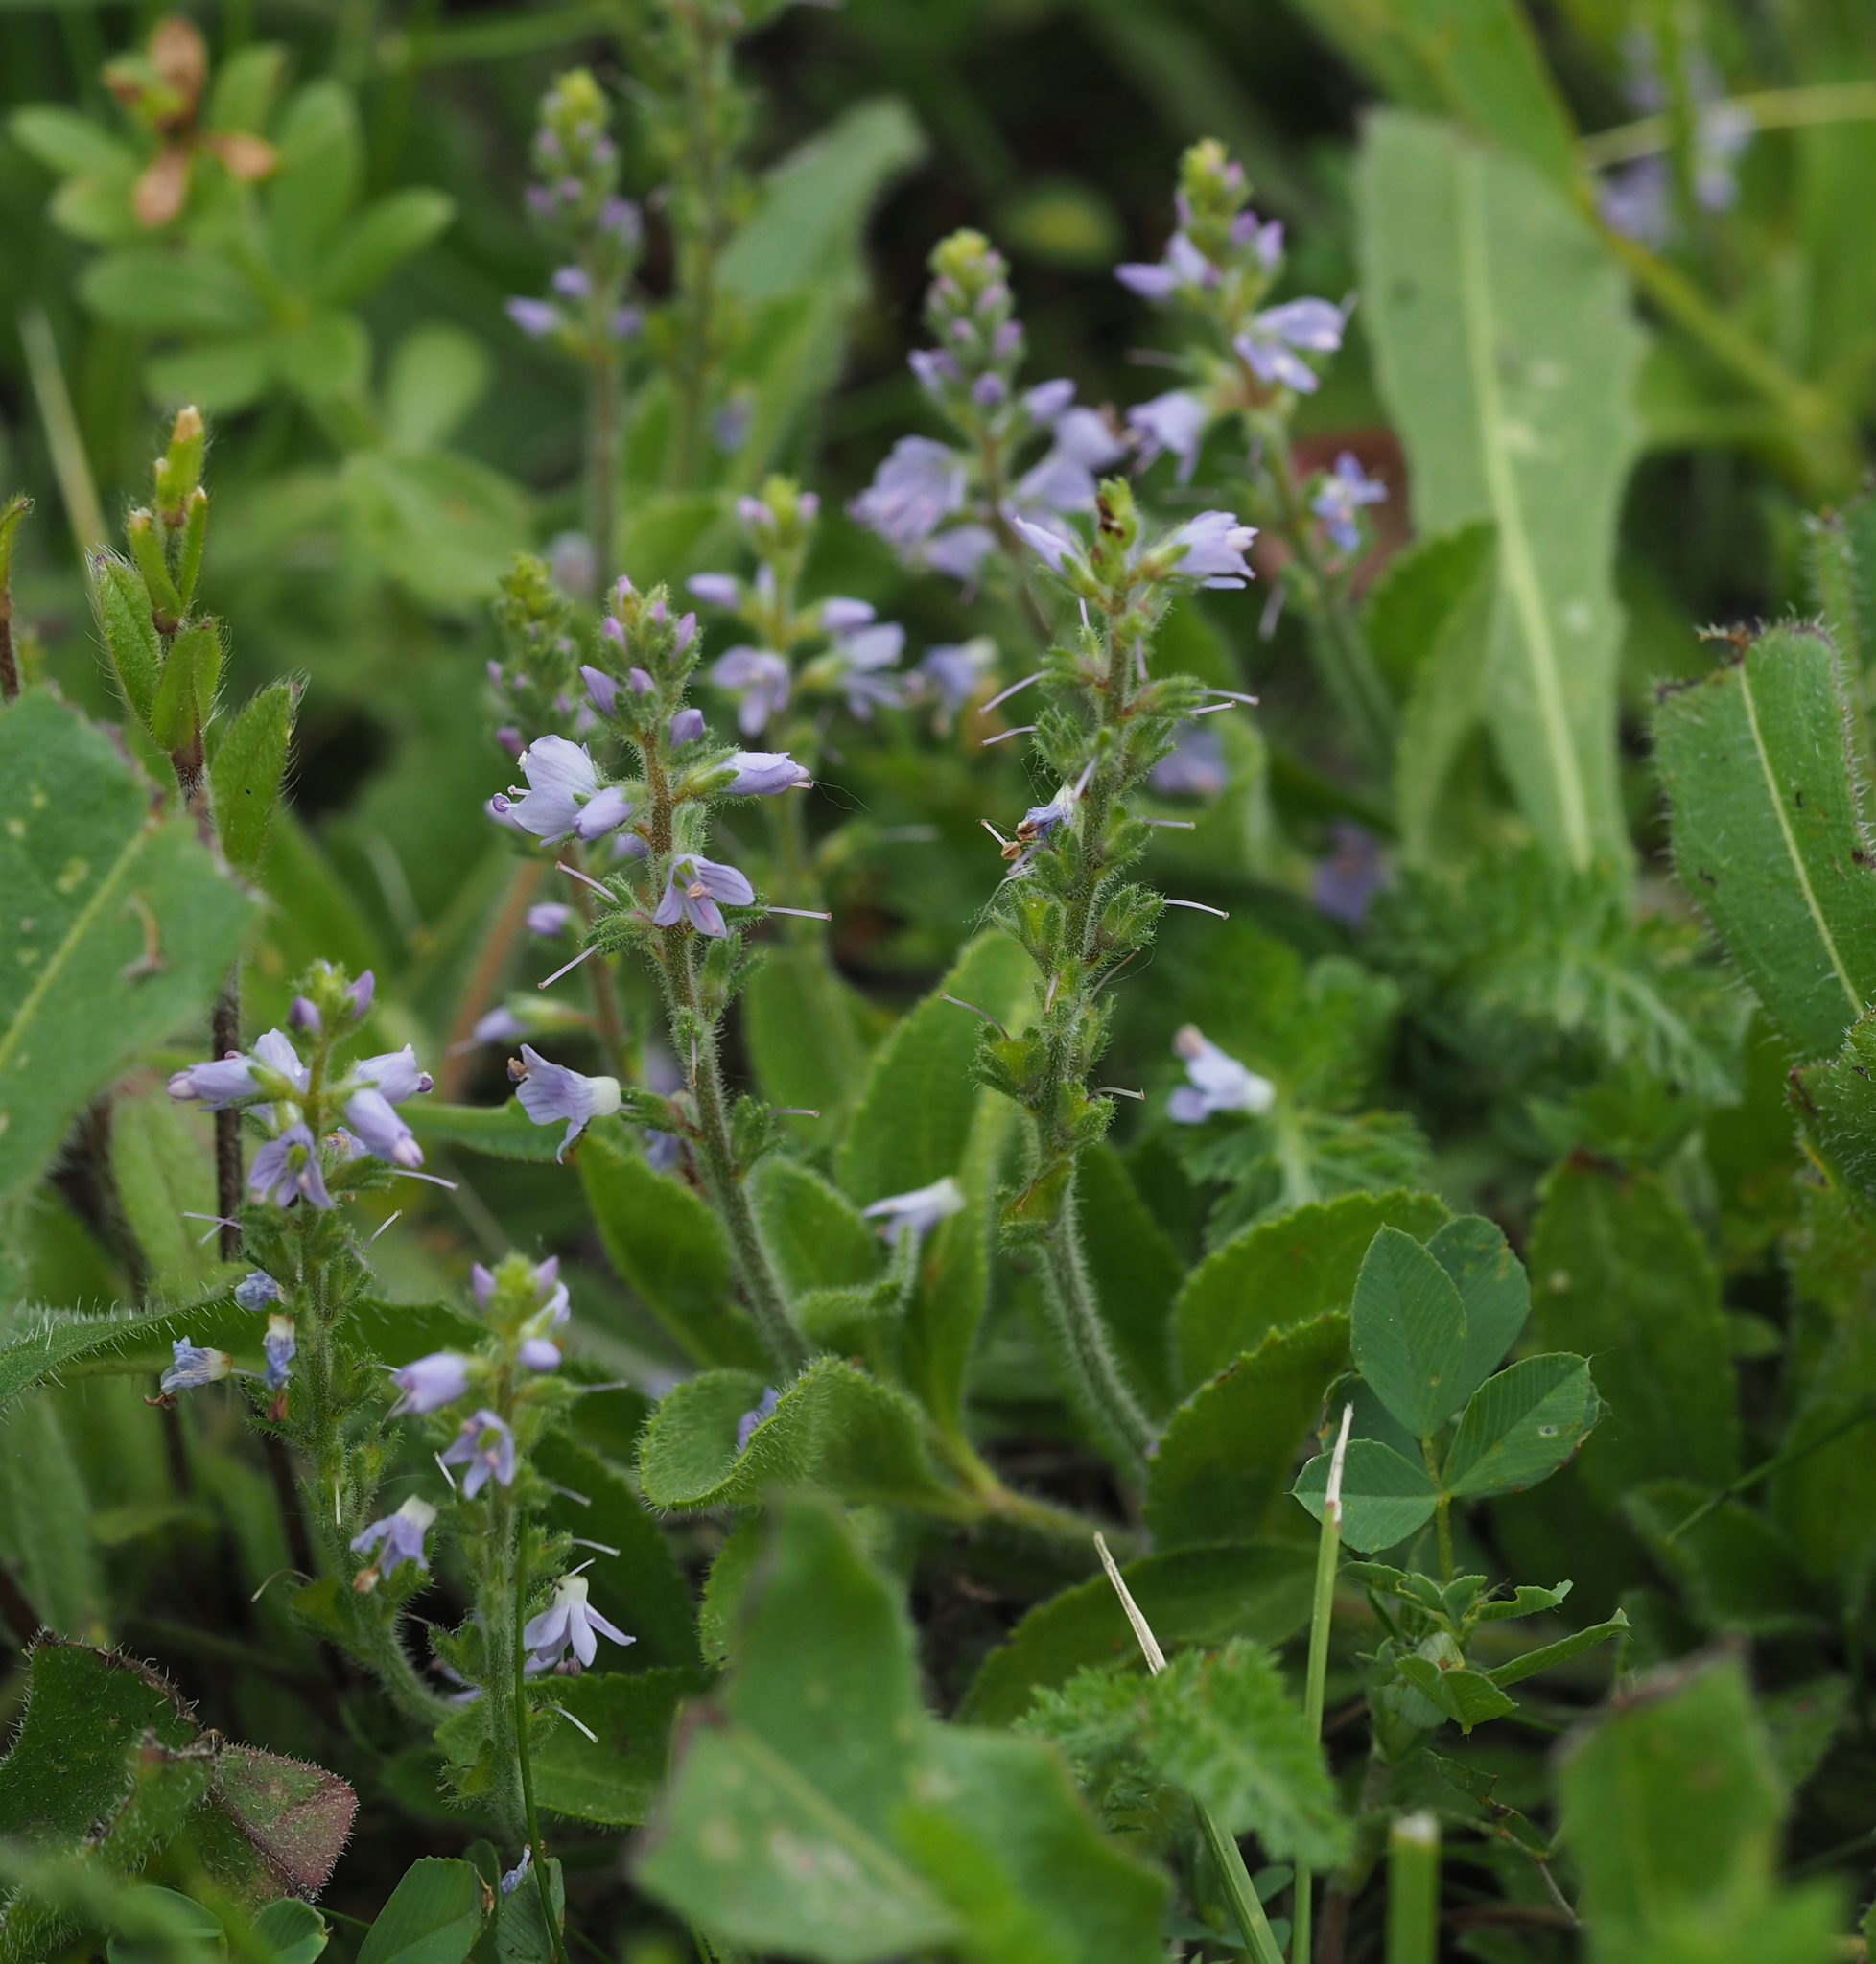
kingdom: Plantae
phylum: Tracheophyta
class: Magnoliopsida
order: Lamiales
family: Plantaginaceae
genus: Veronica
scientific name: Veronica officinalis
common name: Common speedwell
